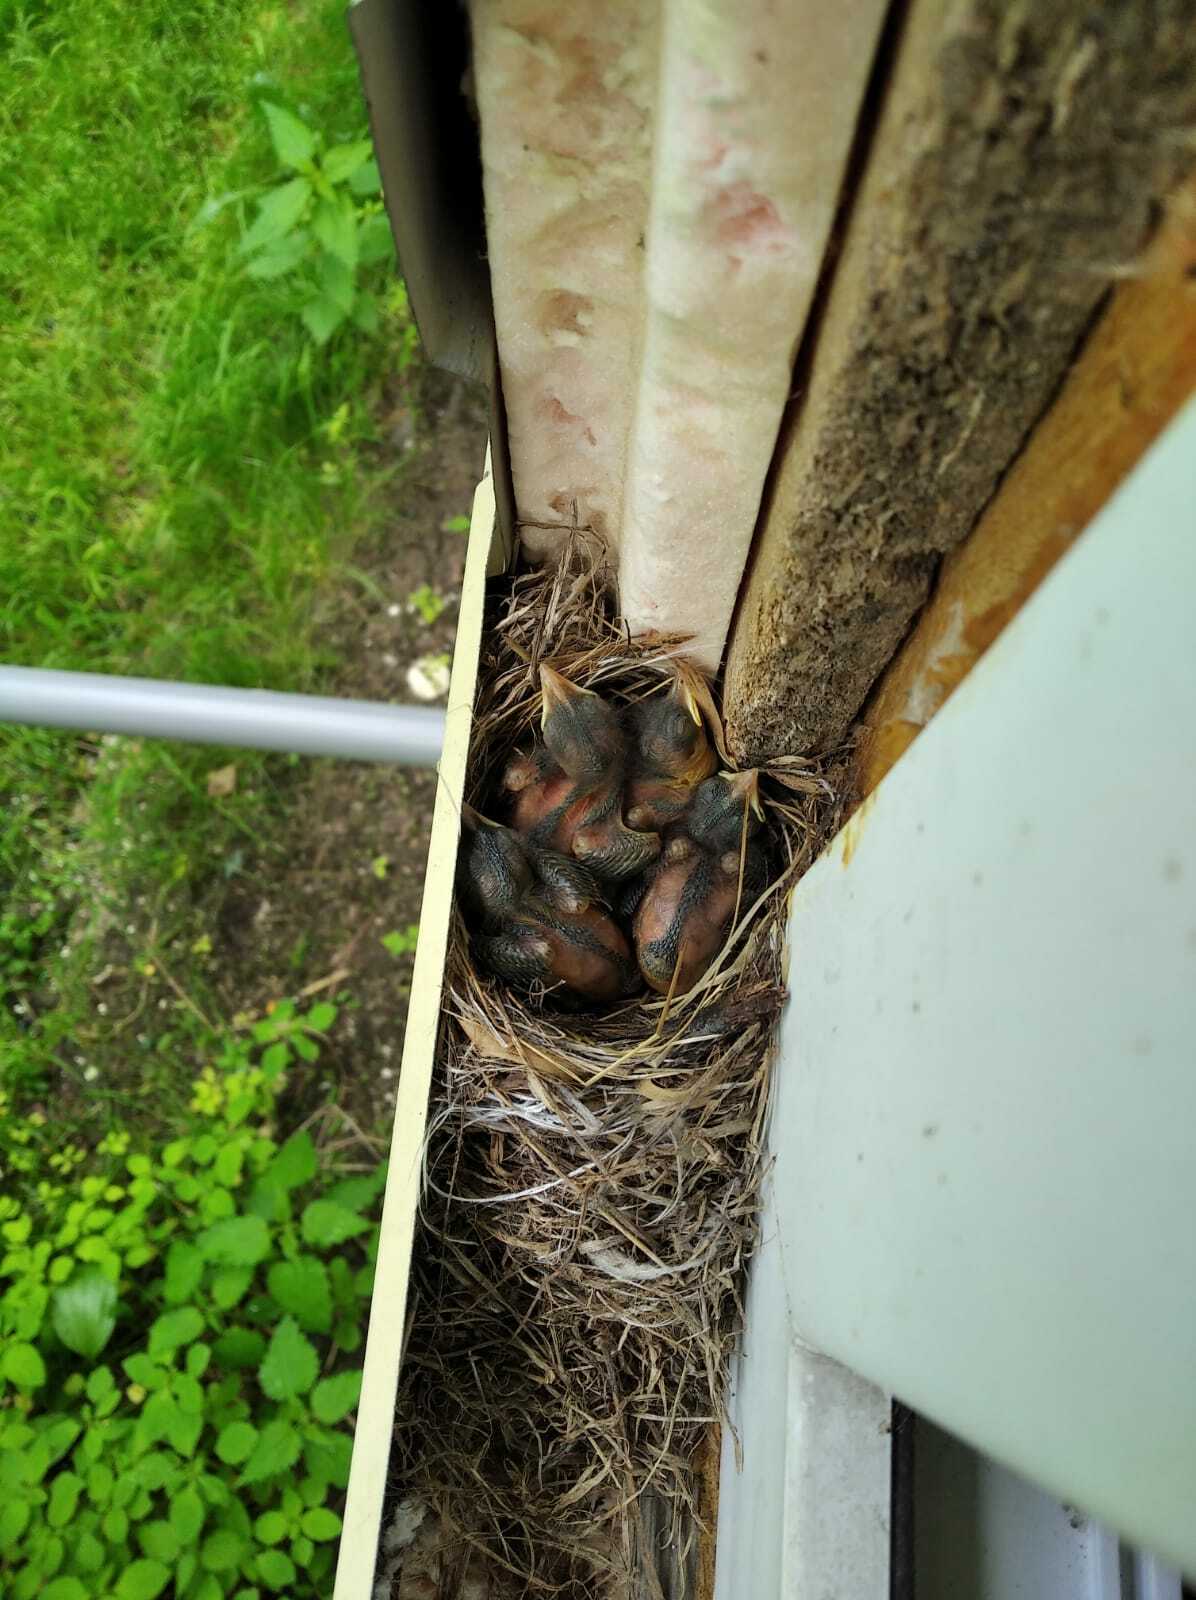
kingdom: Animalia
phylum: Chordata
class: Aves
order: Passeriformes
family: Muscicapidae
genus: Muscicapa
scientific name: Muscicapa striata
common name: Spotted flycatcher
